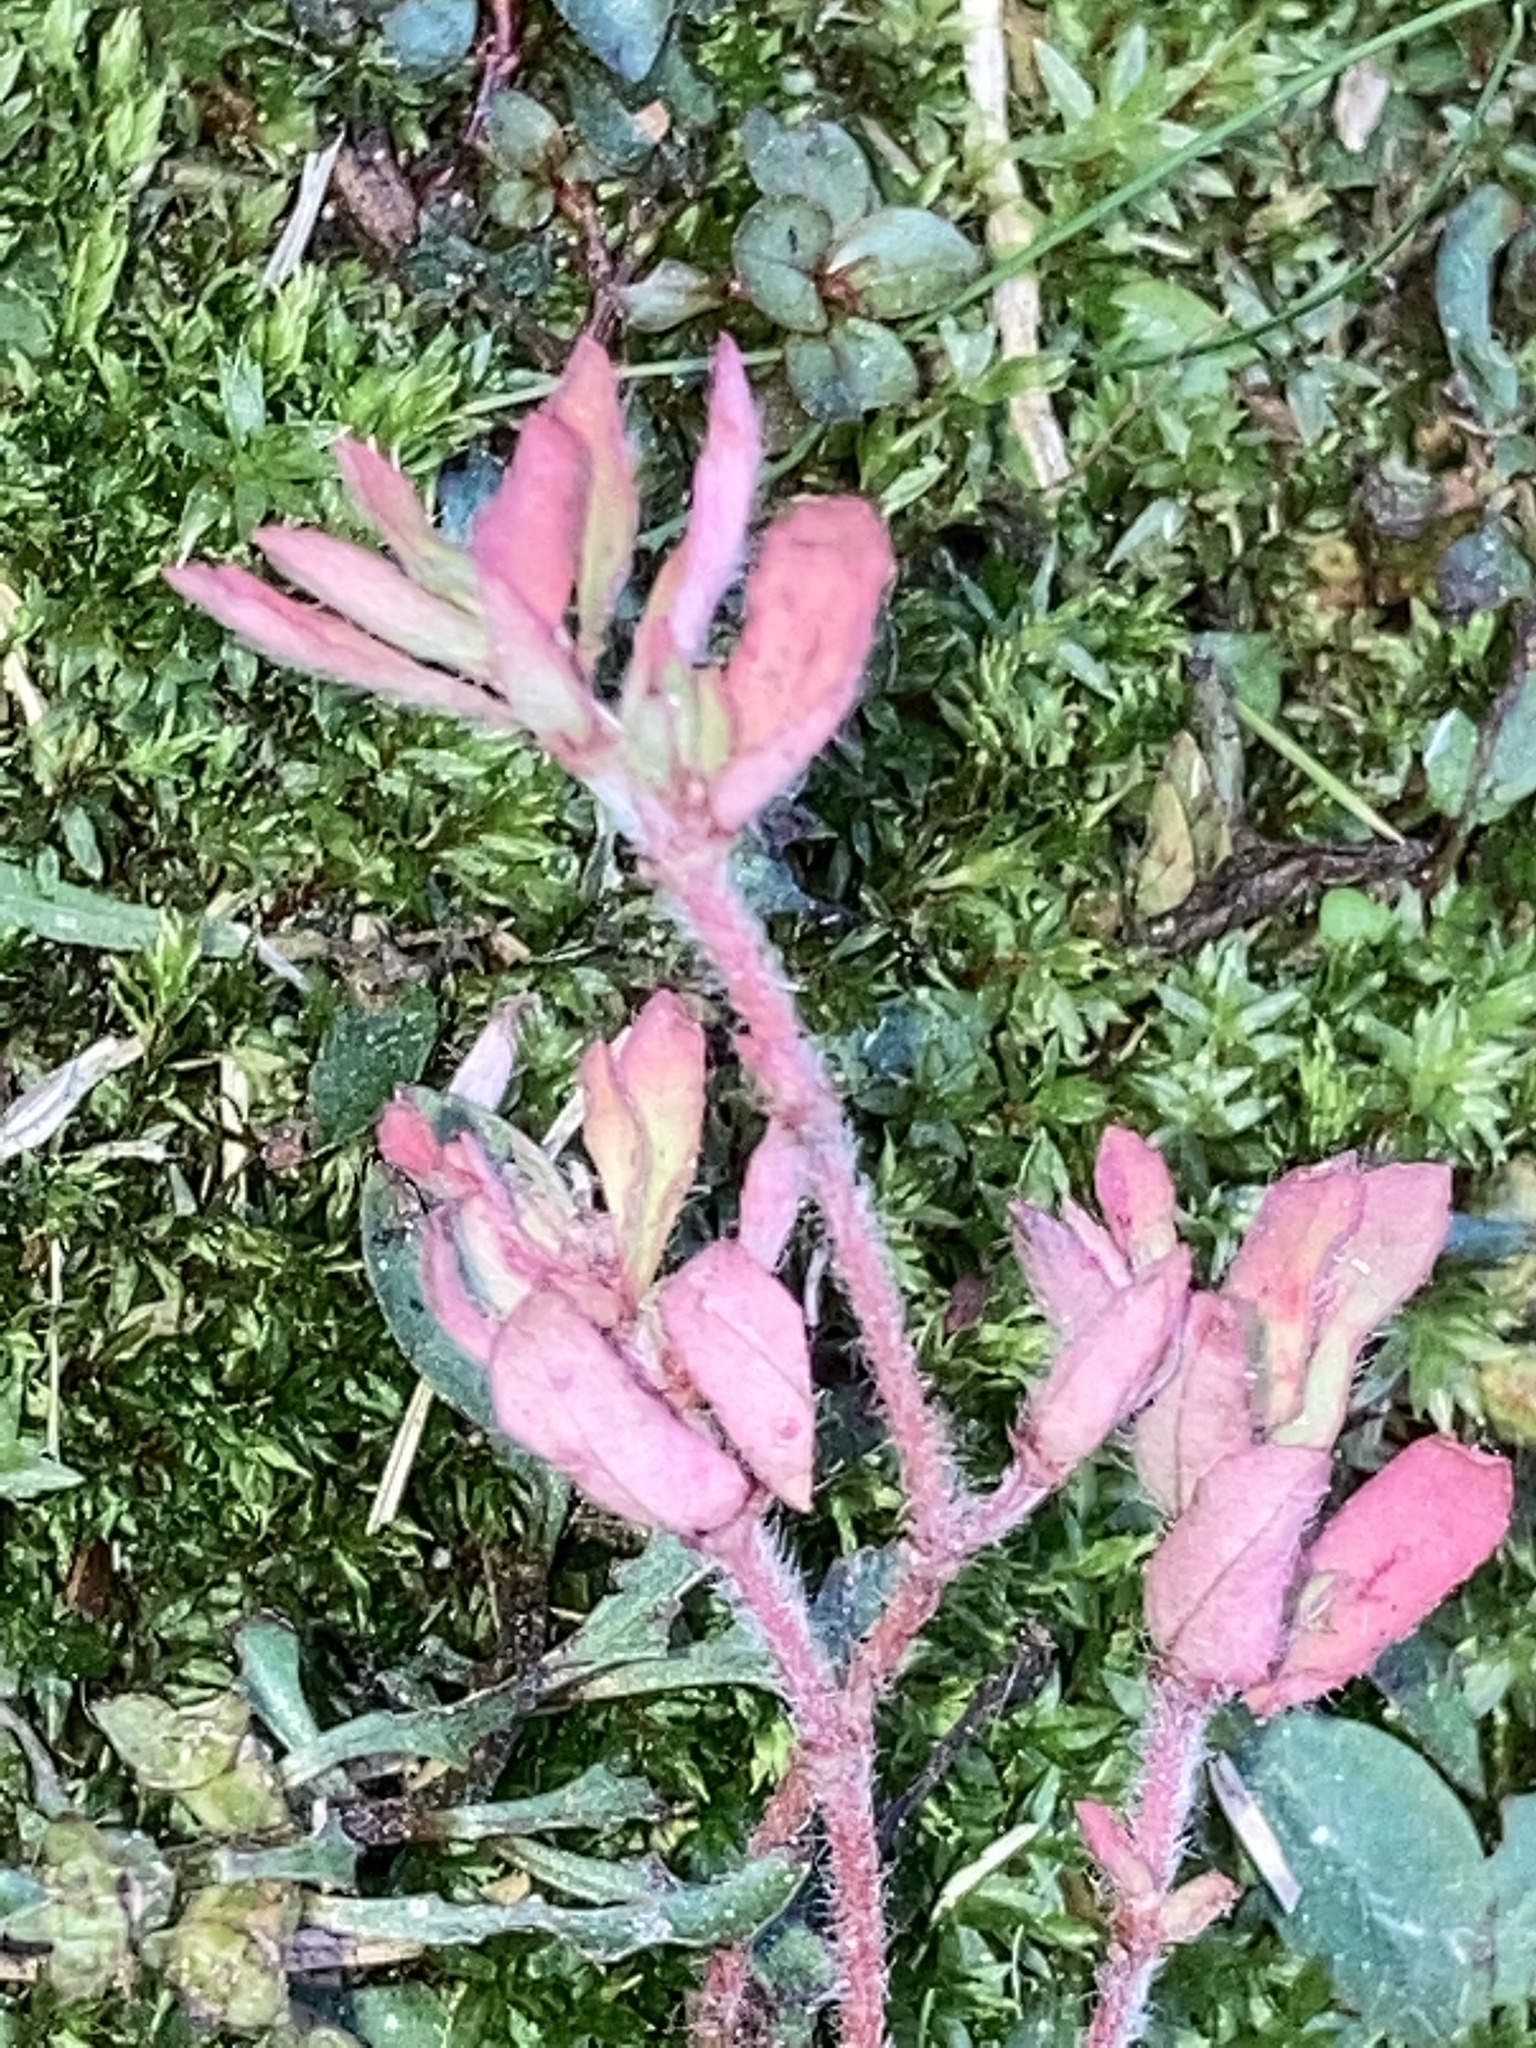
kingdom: Plantae
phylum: Tracheophyta
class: Magnoliopsida
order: Malpighiales
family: Euphorbiaceae
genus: Euphorbia
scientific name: Euphorbia maculata
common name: Spotted spurge
